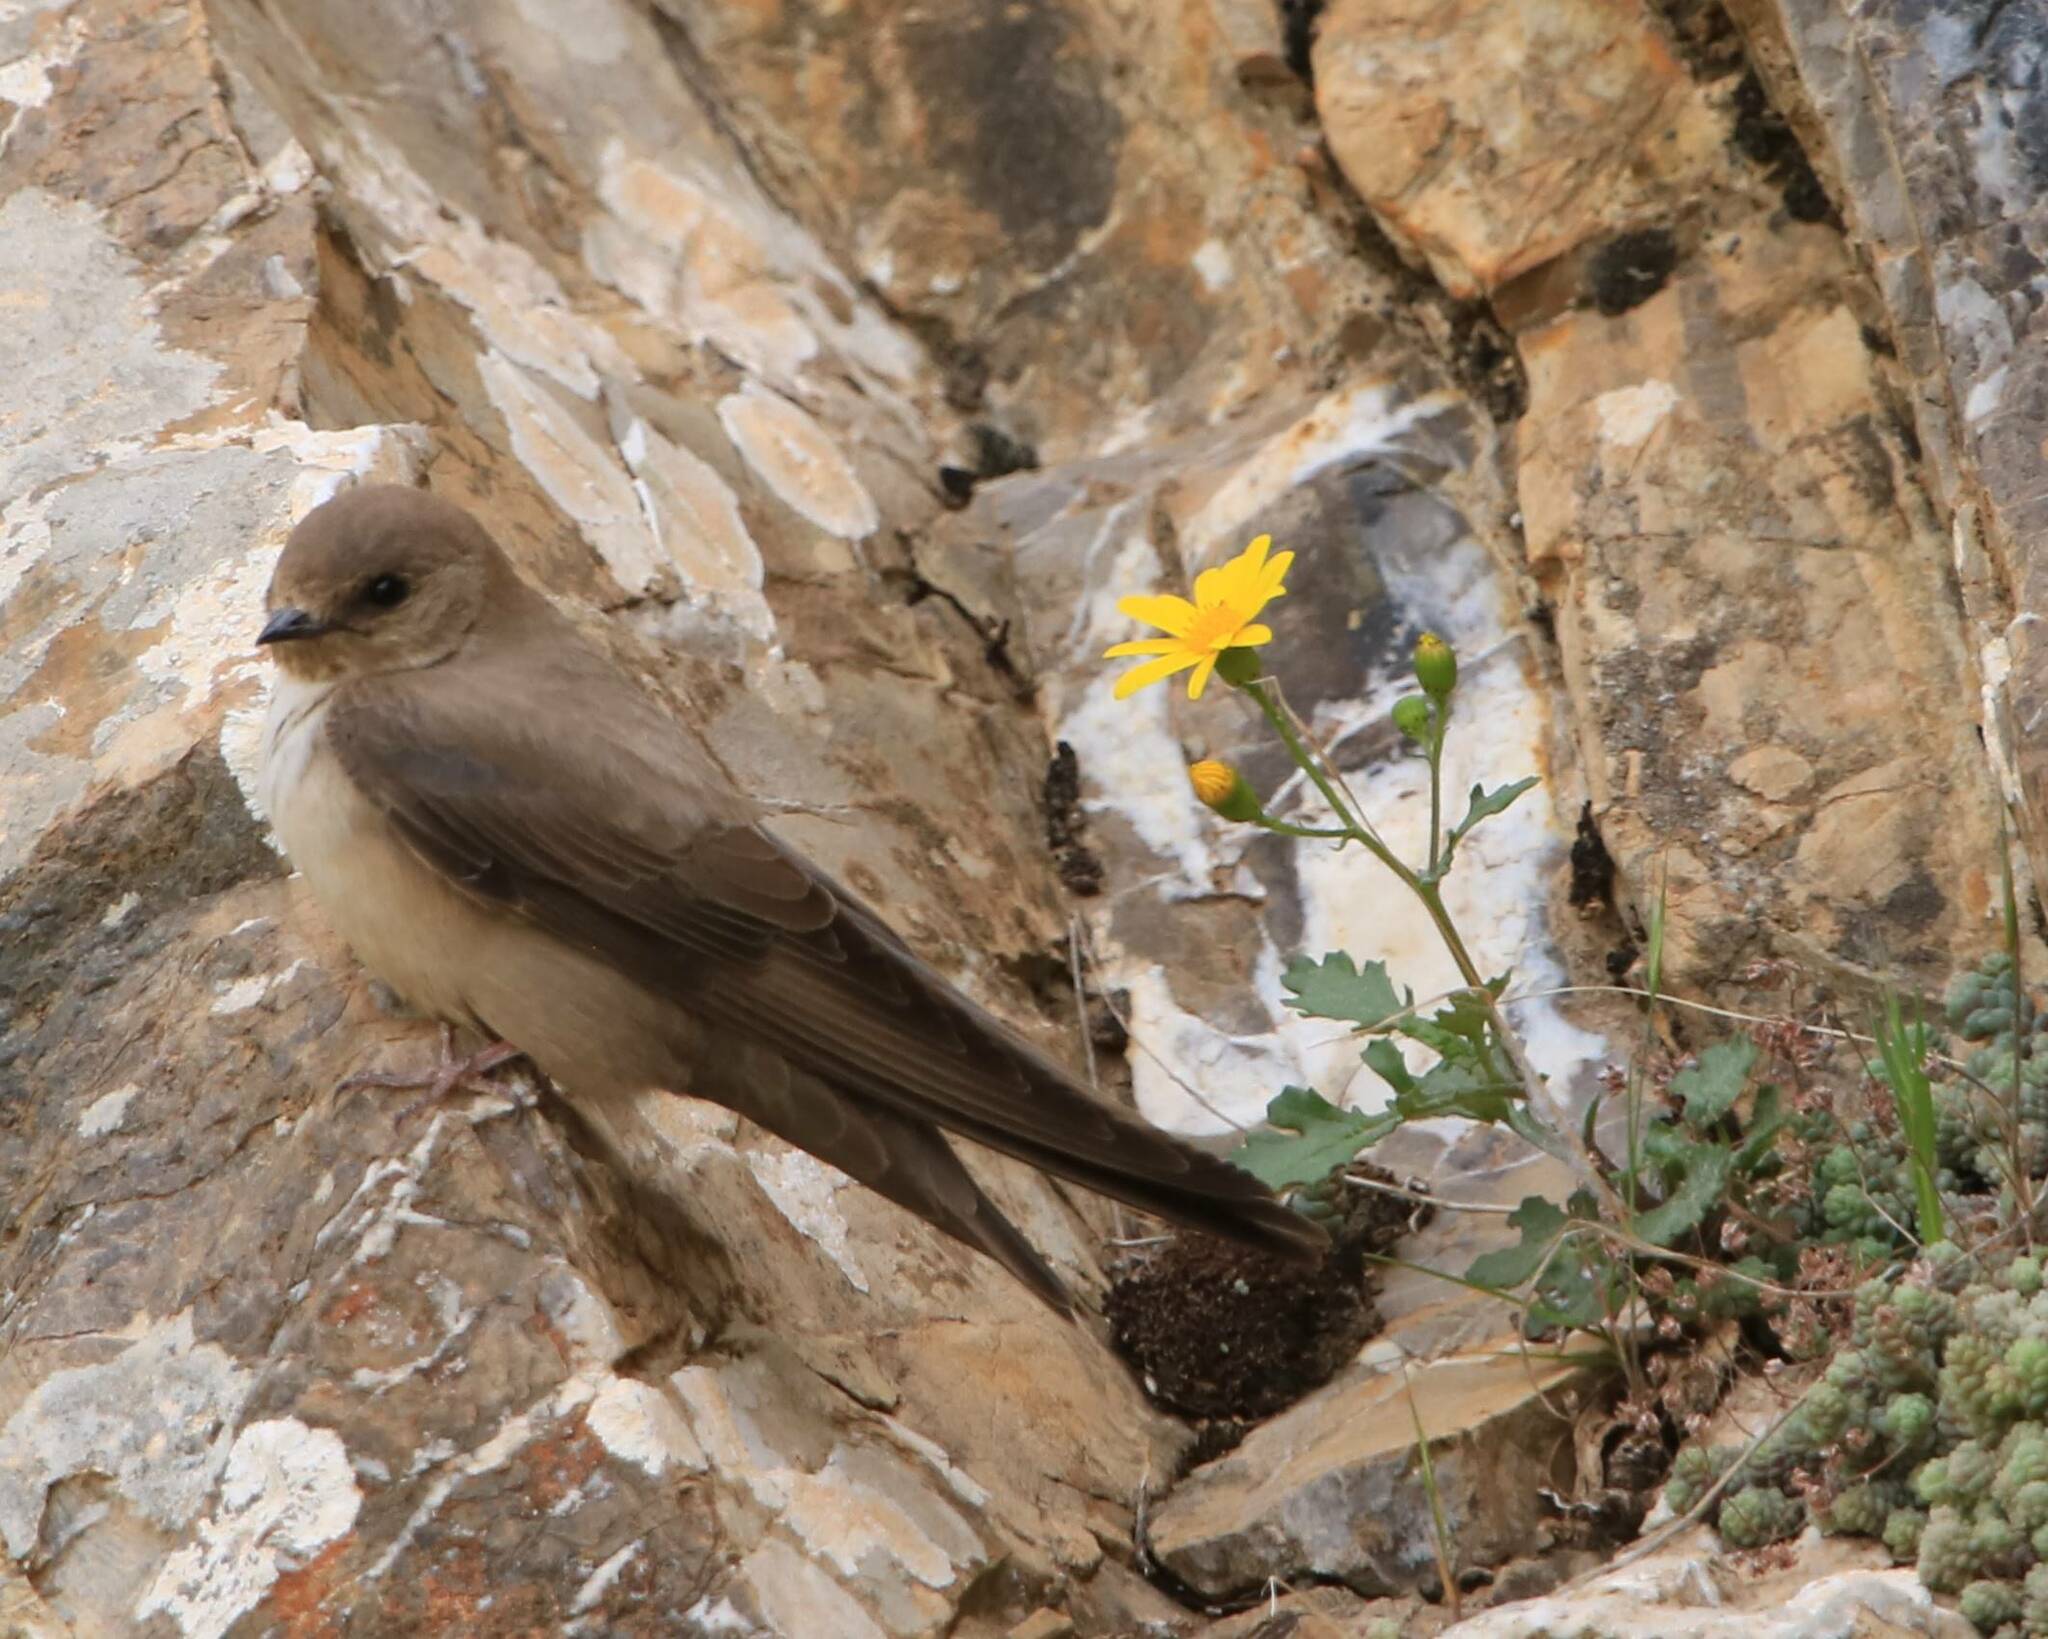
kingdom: Animalia
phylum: Chordata
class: Aves
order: Passeriformes
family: Hirundinidae
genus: Ptyonoprogne
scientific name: Ptyonoprogne rupestris
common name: Eurasian crag martin
